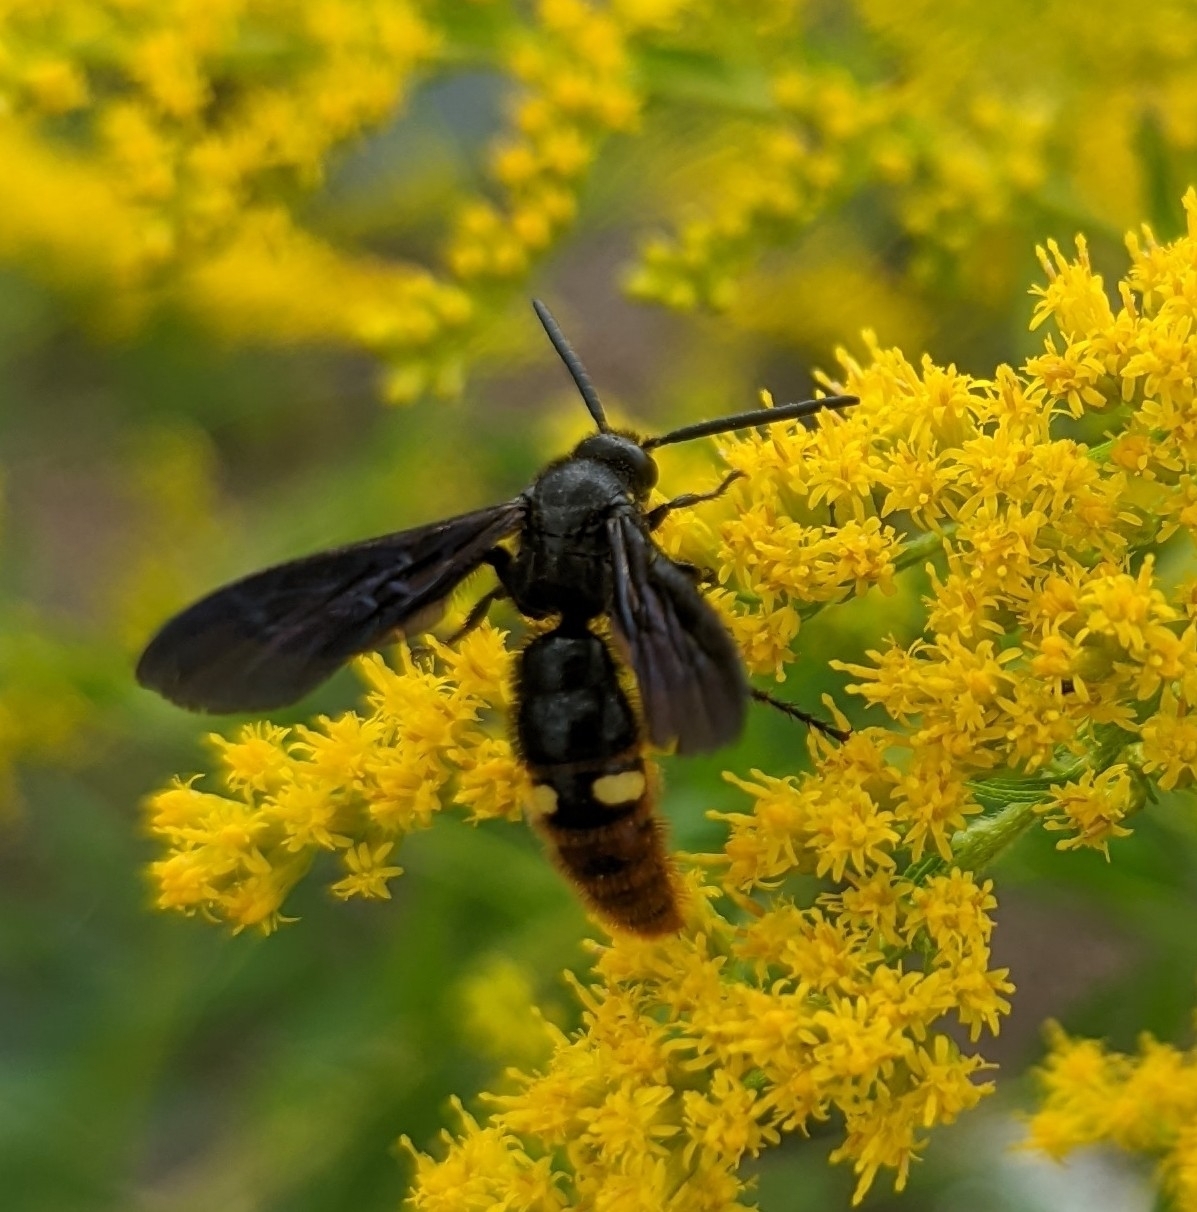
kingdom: Animalia
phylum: Arthropoda
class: Insecta
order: Hymenoptera
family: Scoliidae
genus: Scolia
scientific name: Scolia dubia
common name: Blue-winged scoliid wasp
